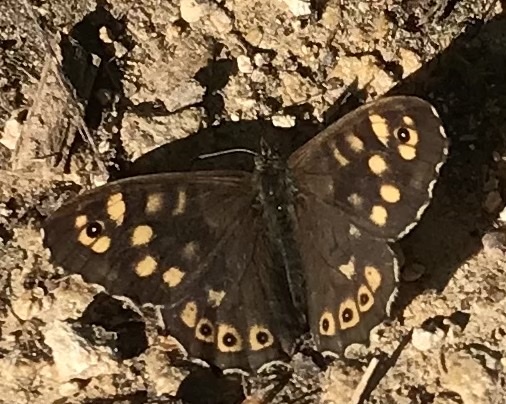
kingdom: Animalia
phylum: Arthropoda
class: Insecta
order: Lepidoptera
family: Nymphalidae
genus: Pararge
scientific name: Pararge aegeria
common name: Speckled wood
